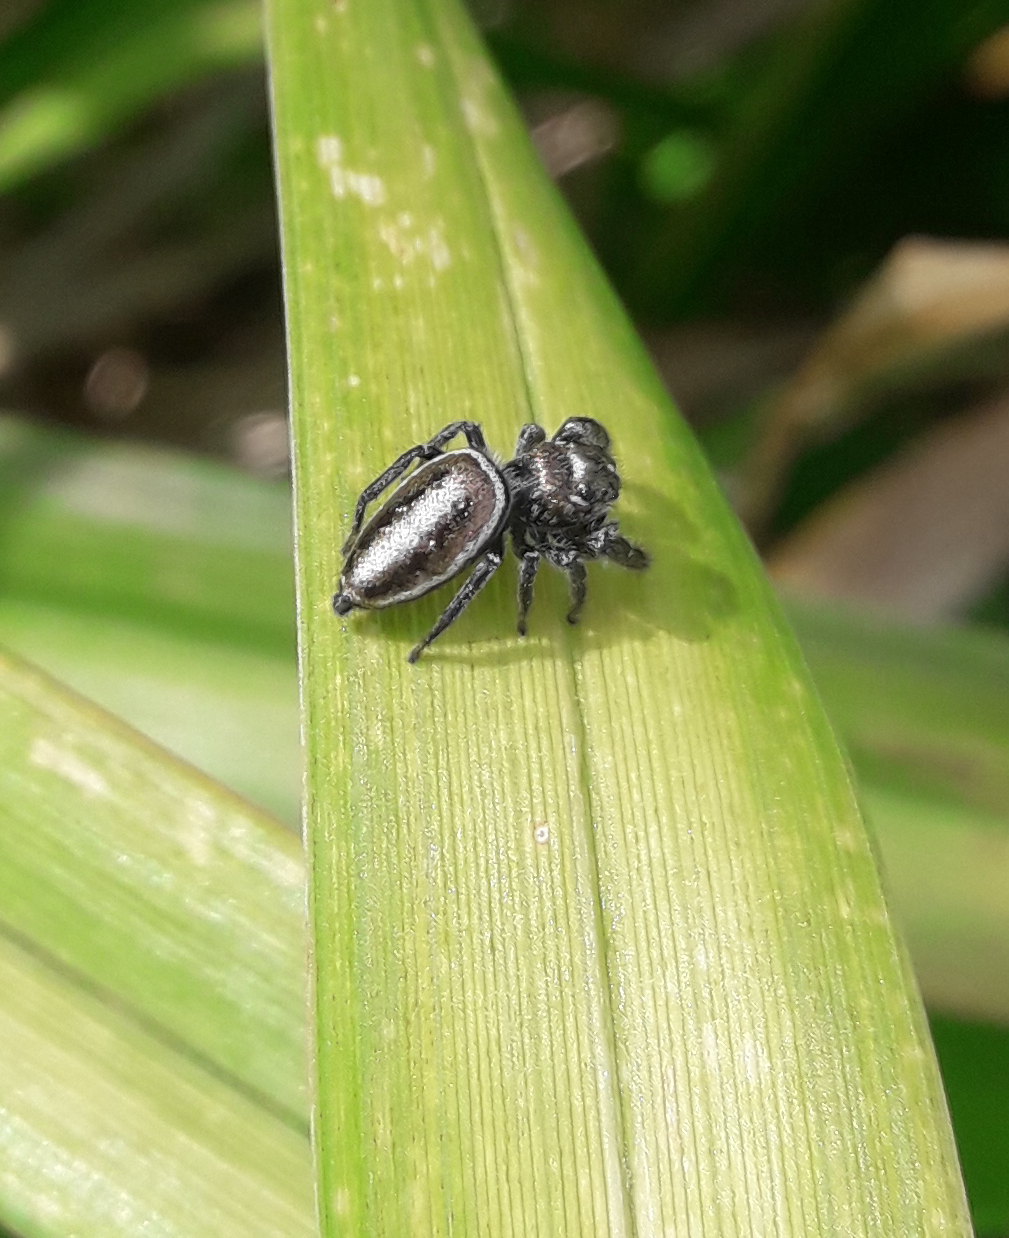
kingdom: Animalia
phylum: Arthropoda
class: Arachnida
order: Araneae
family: Salticidae
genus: Dendryphantes
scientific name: Dendryphantes mordax
